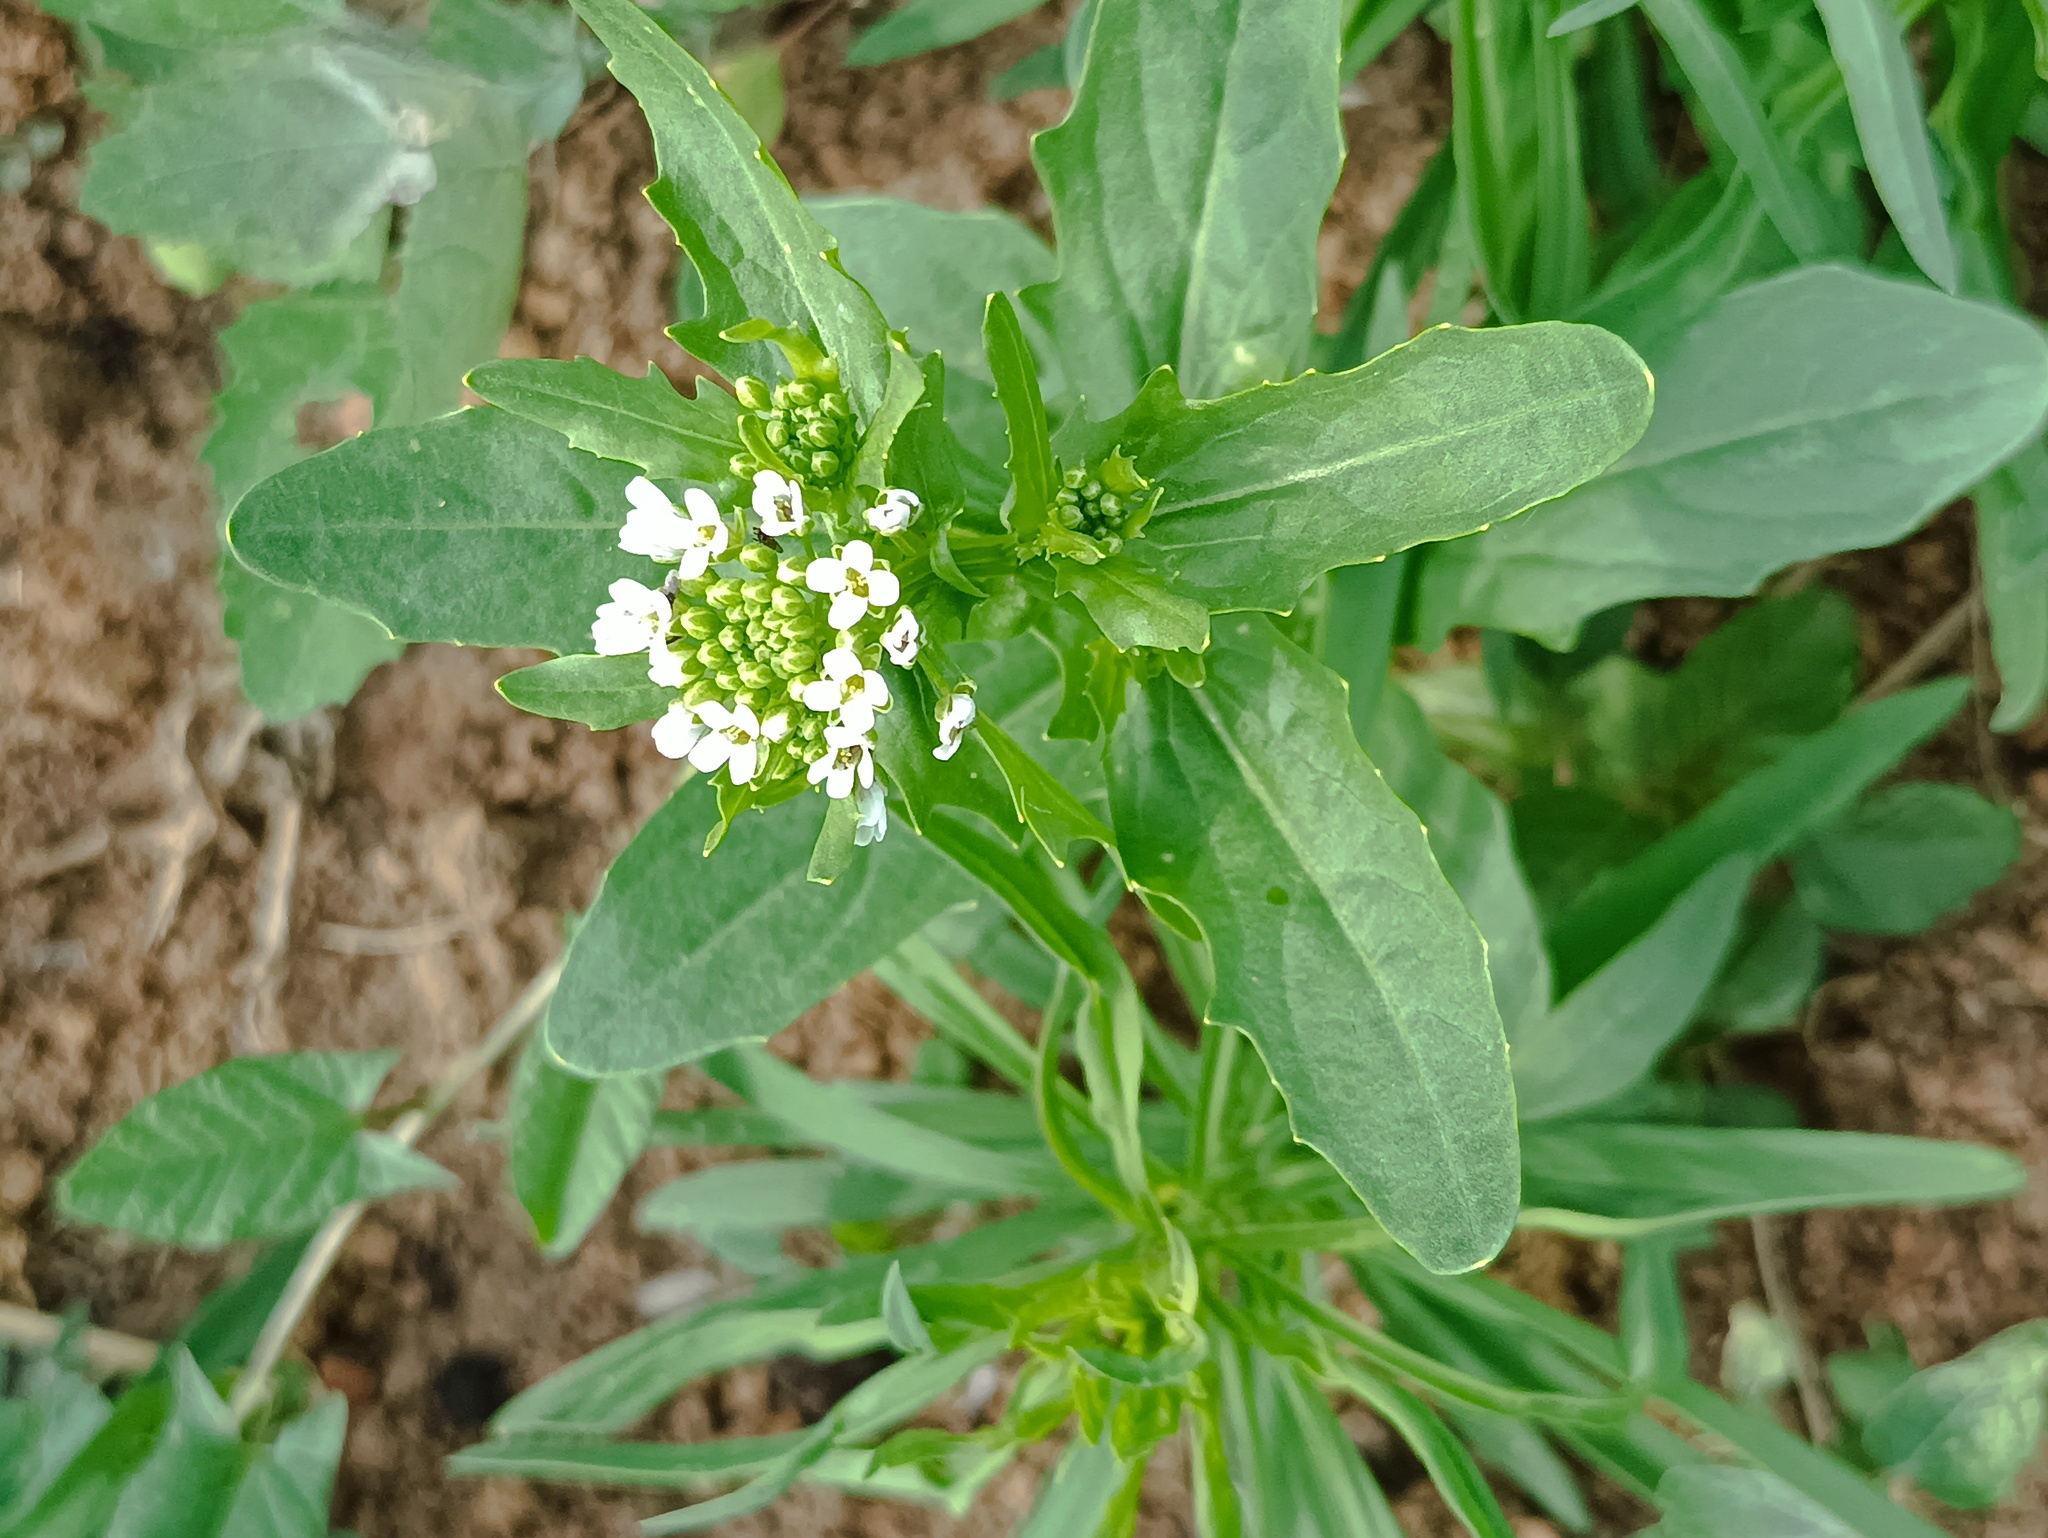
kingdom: Plantae
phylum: Tracheophyta
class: Magnoliopsida
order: Brassicales
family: Brassicaceae
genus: Thlaspi
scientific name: Thlaspi arvense
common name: Field pennycress
